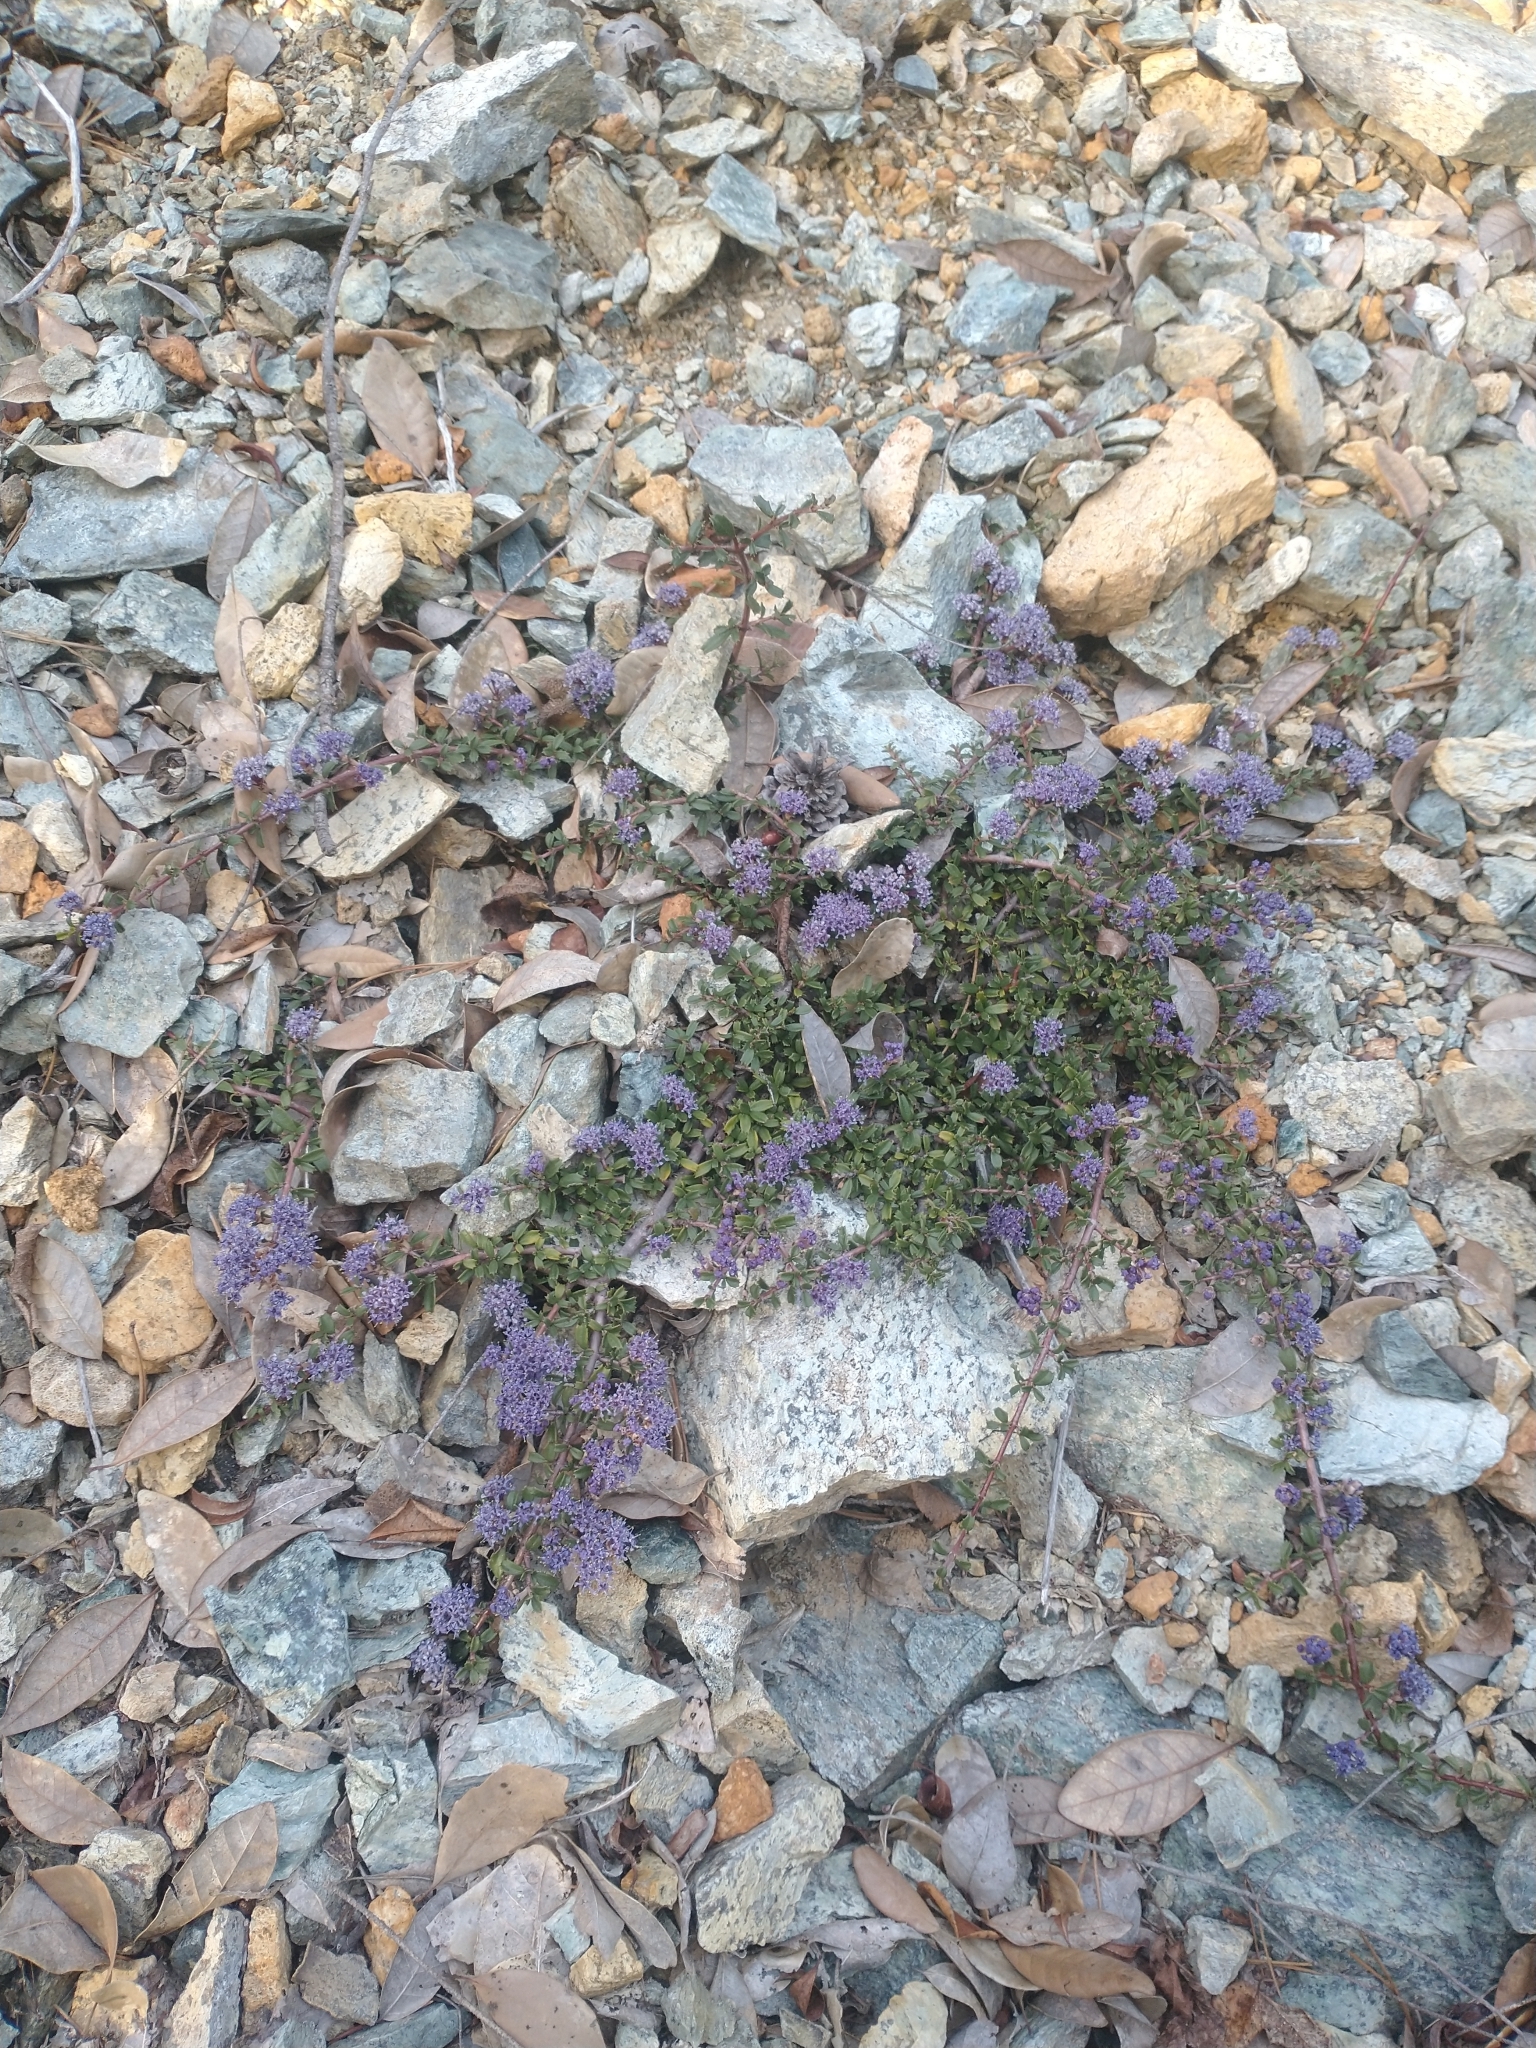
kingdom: Plantae
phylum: Tracheophyta
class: Magnoliopsida
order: Rosales
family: Rhamnaceae
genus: Ceanothus
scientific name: Ceanothus pumilus
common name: Siskiyou-mat
